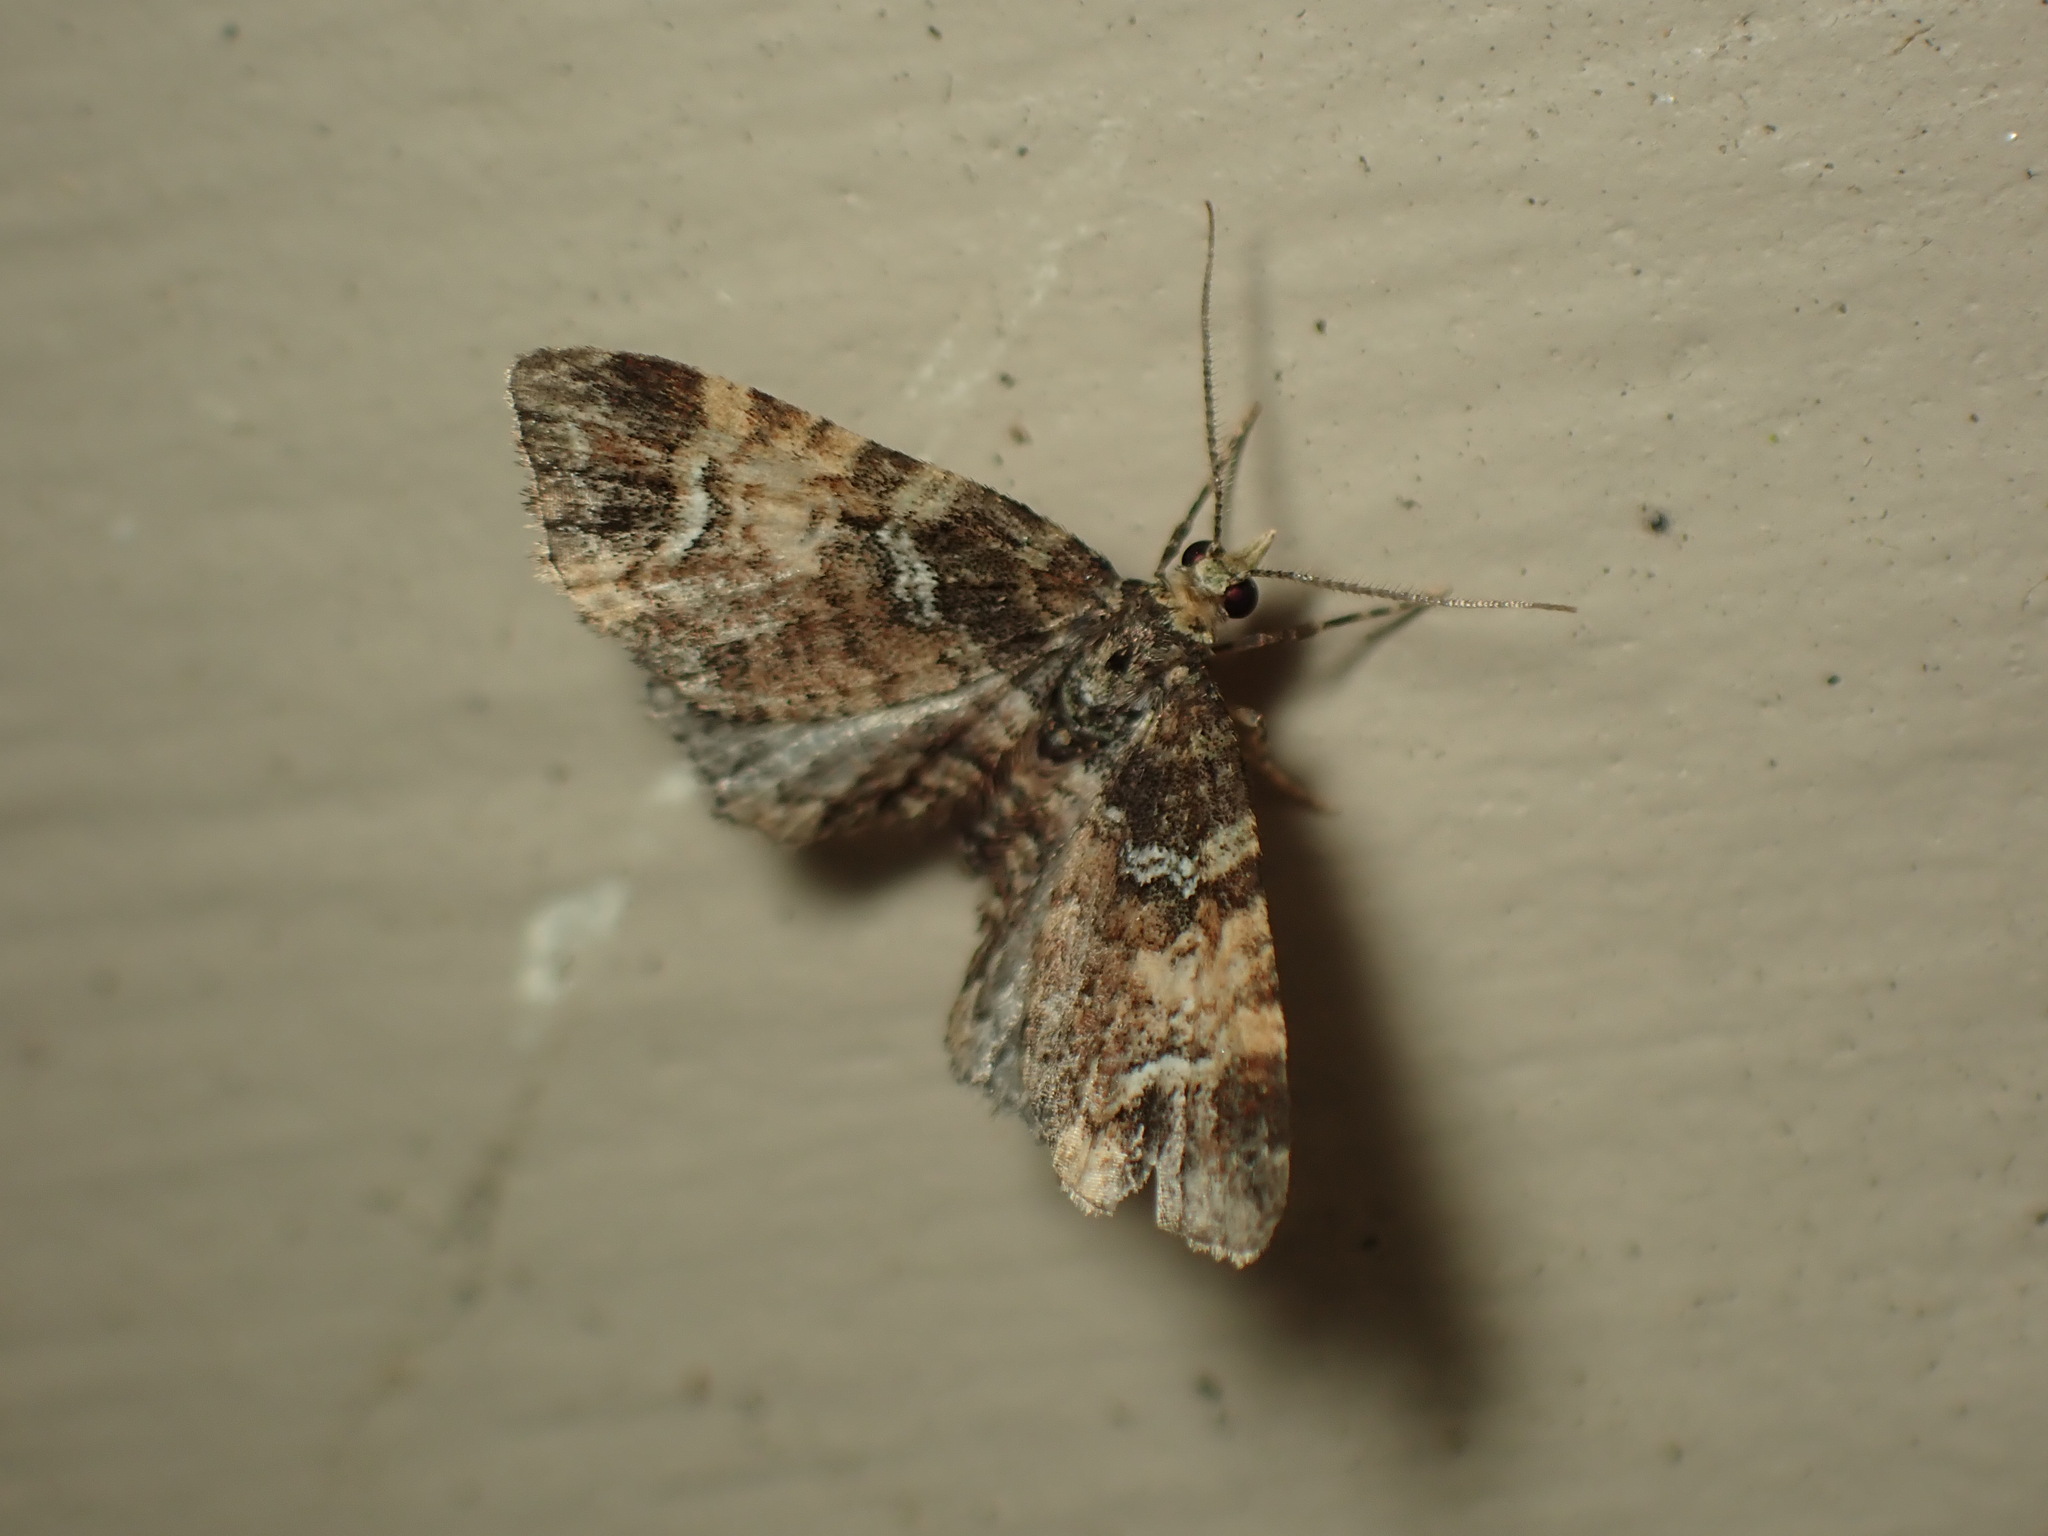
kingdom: Animalia
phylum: Arthropoda
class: Insecta
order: Lepidoptera
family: Geometridae
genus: Pasiphila
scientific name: Pasiphila sandycias
